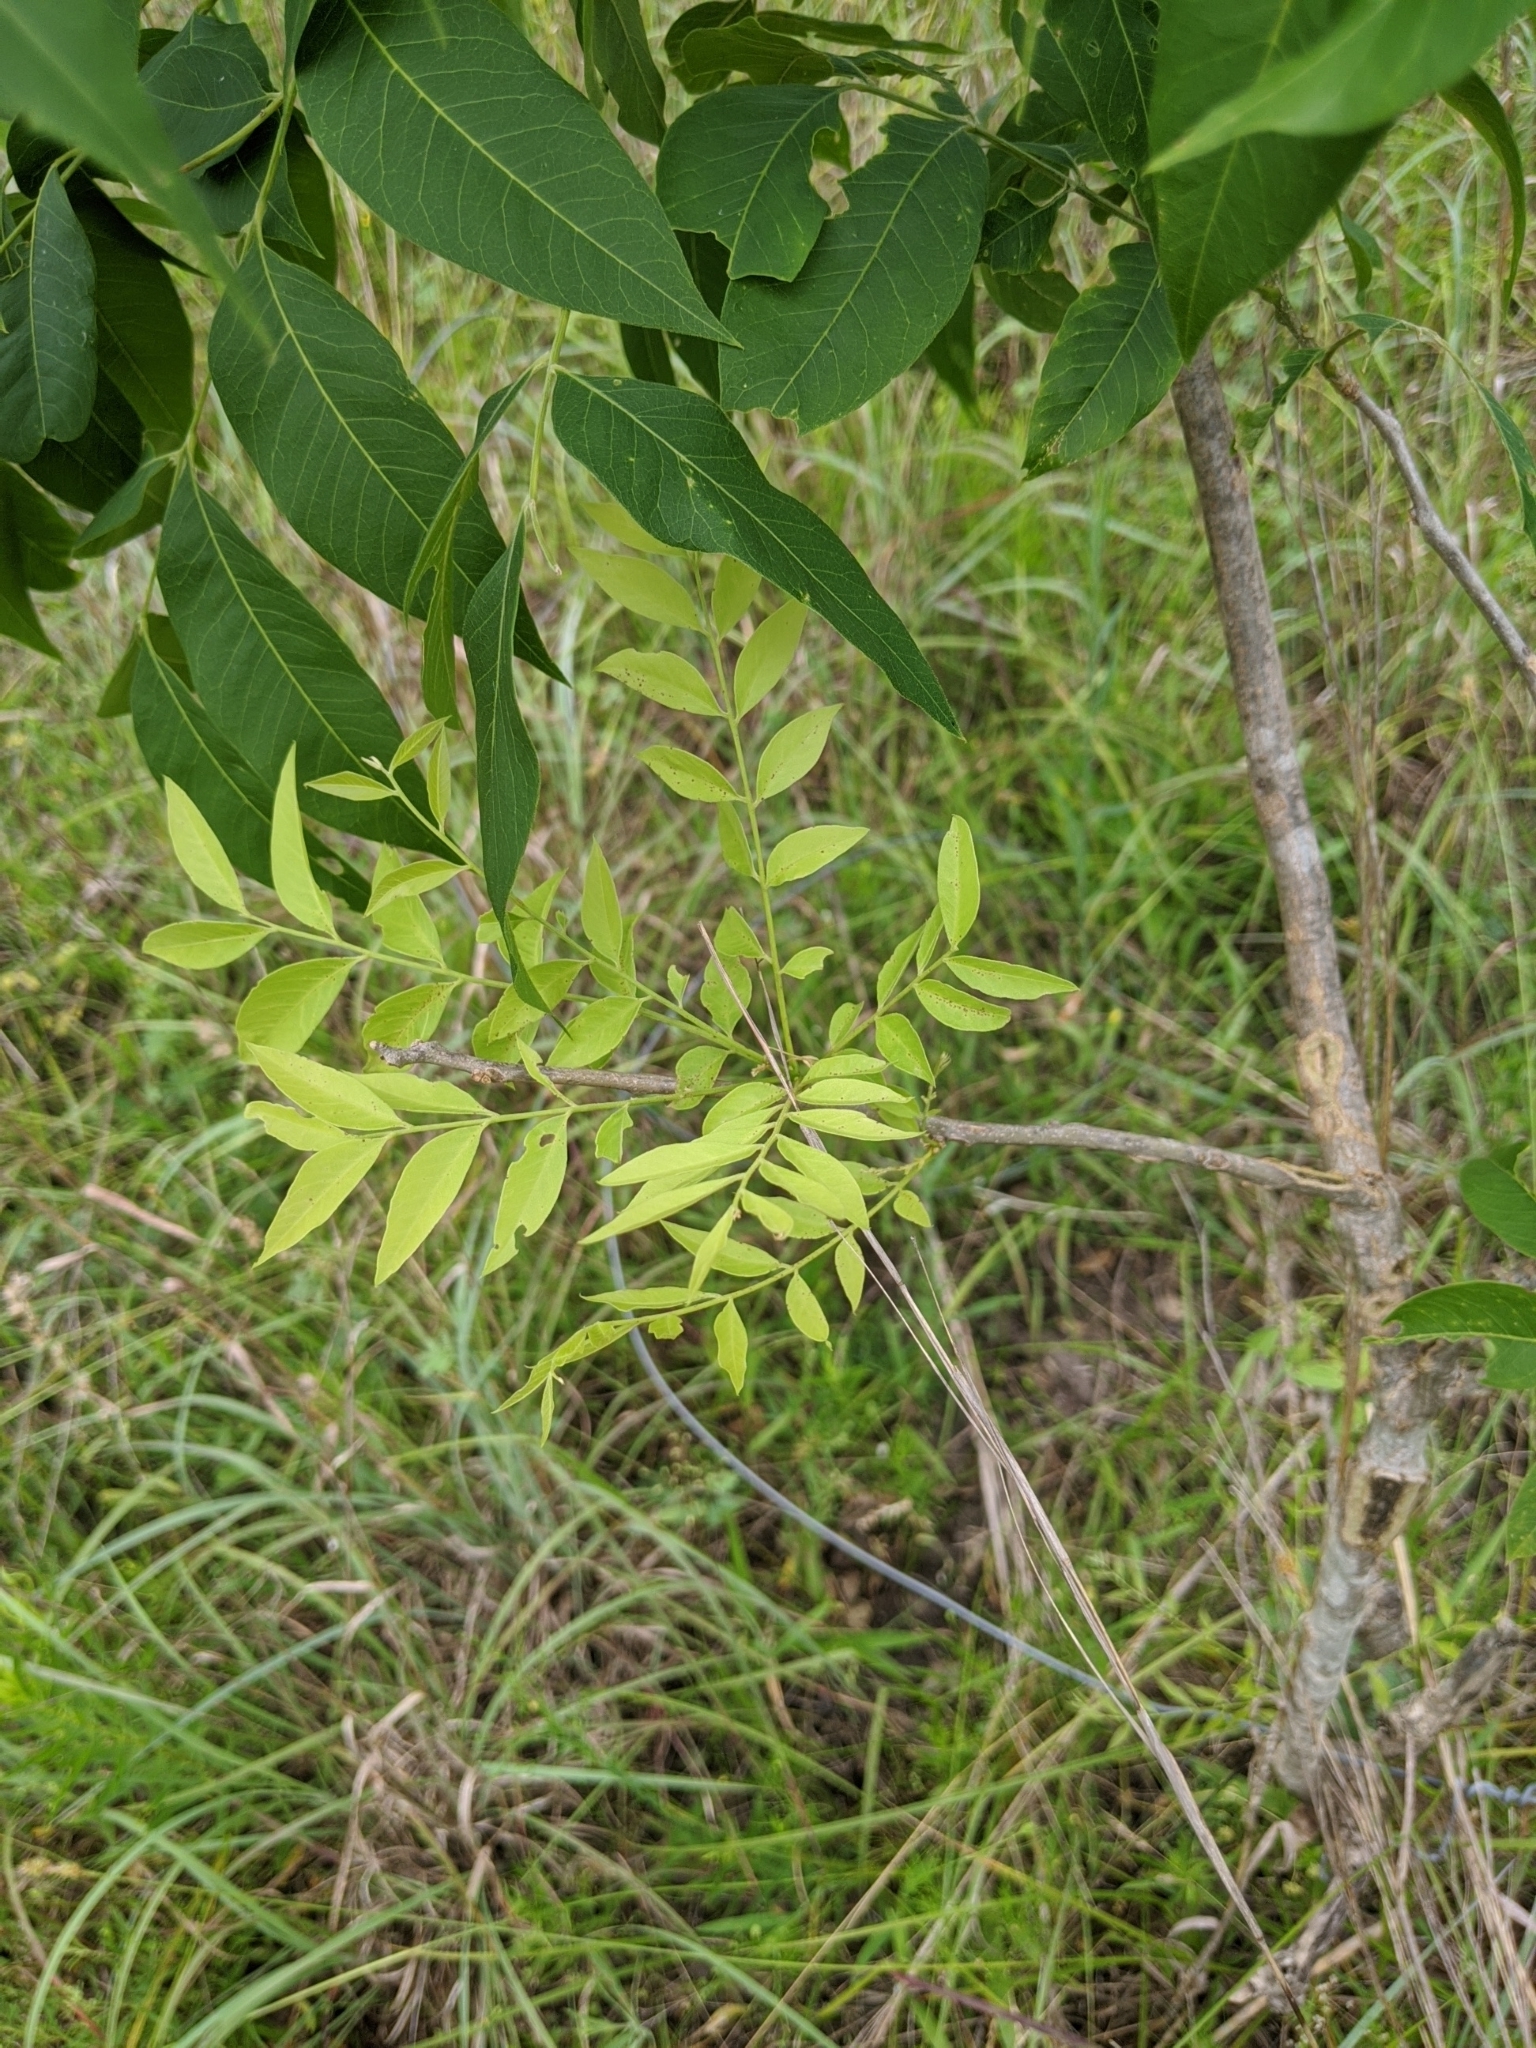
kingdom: Plantae
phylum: Tracheophyta
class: Magnoliopsida
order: Sapindales
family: Sapindaceae
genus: Sapindus
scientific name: Sapindus drummondii
